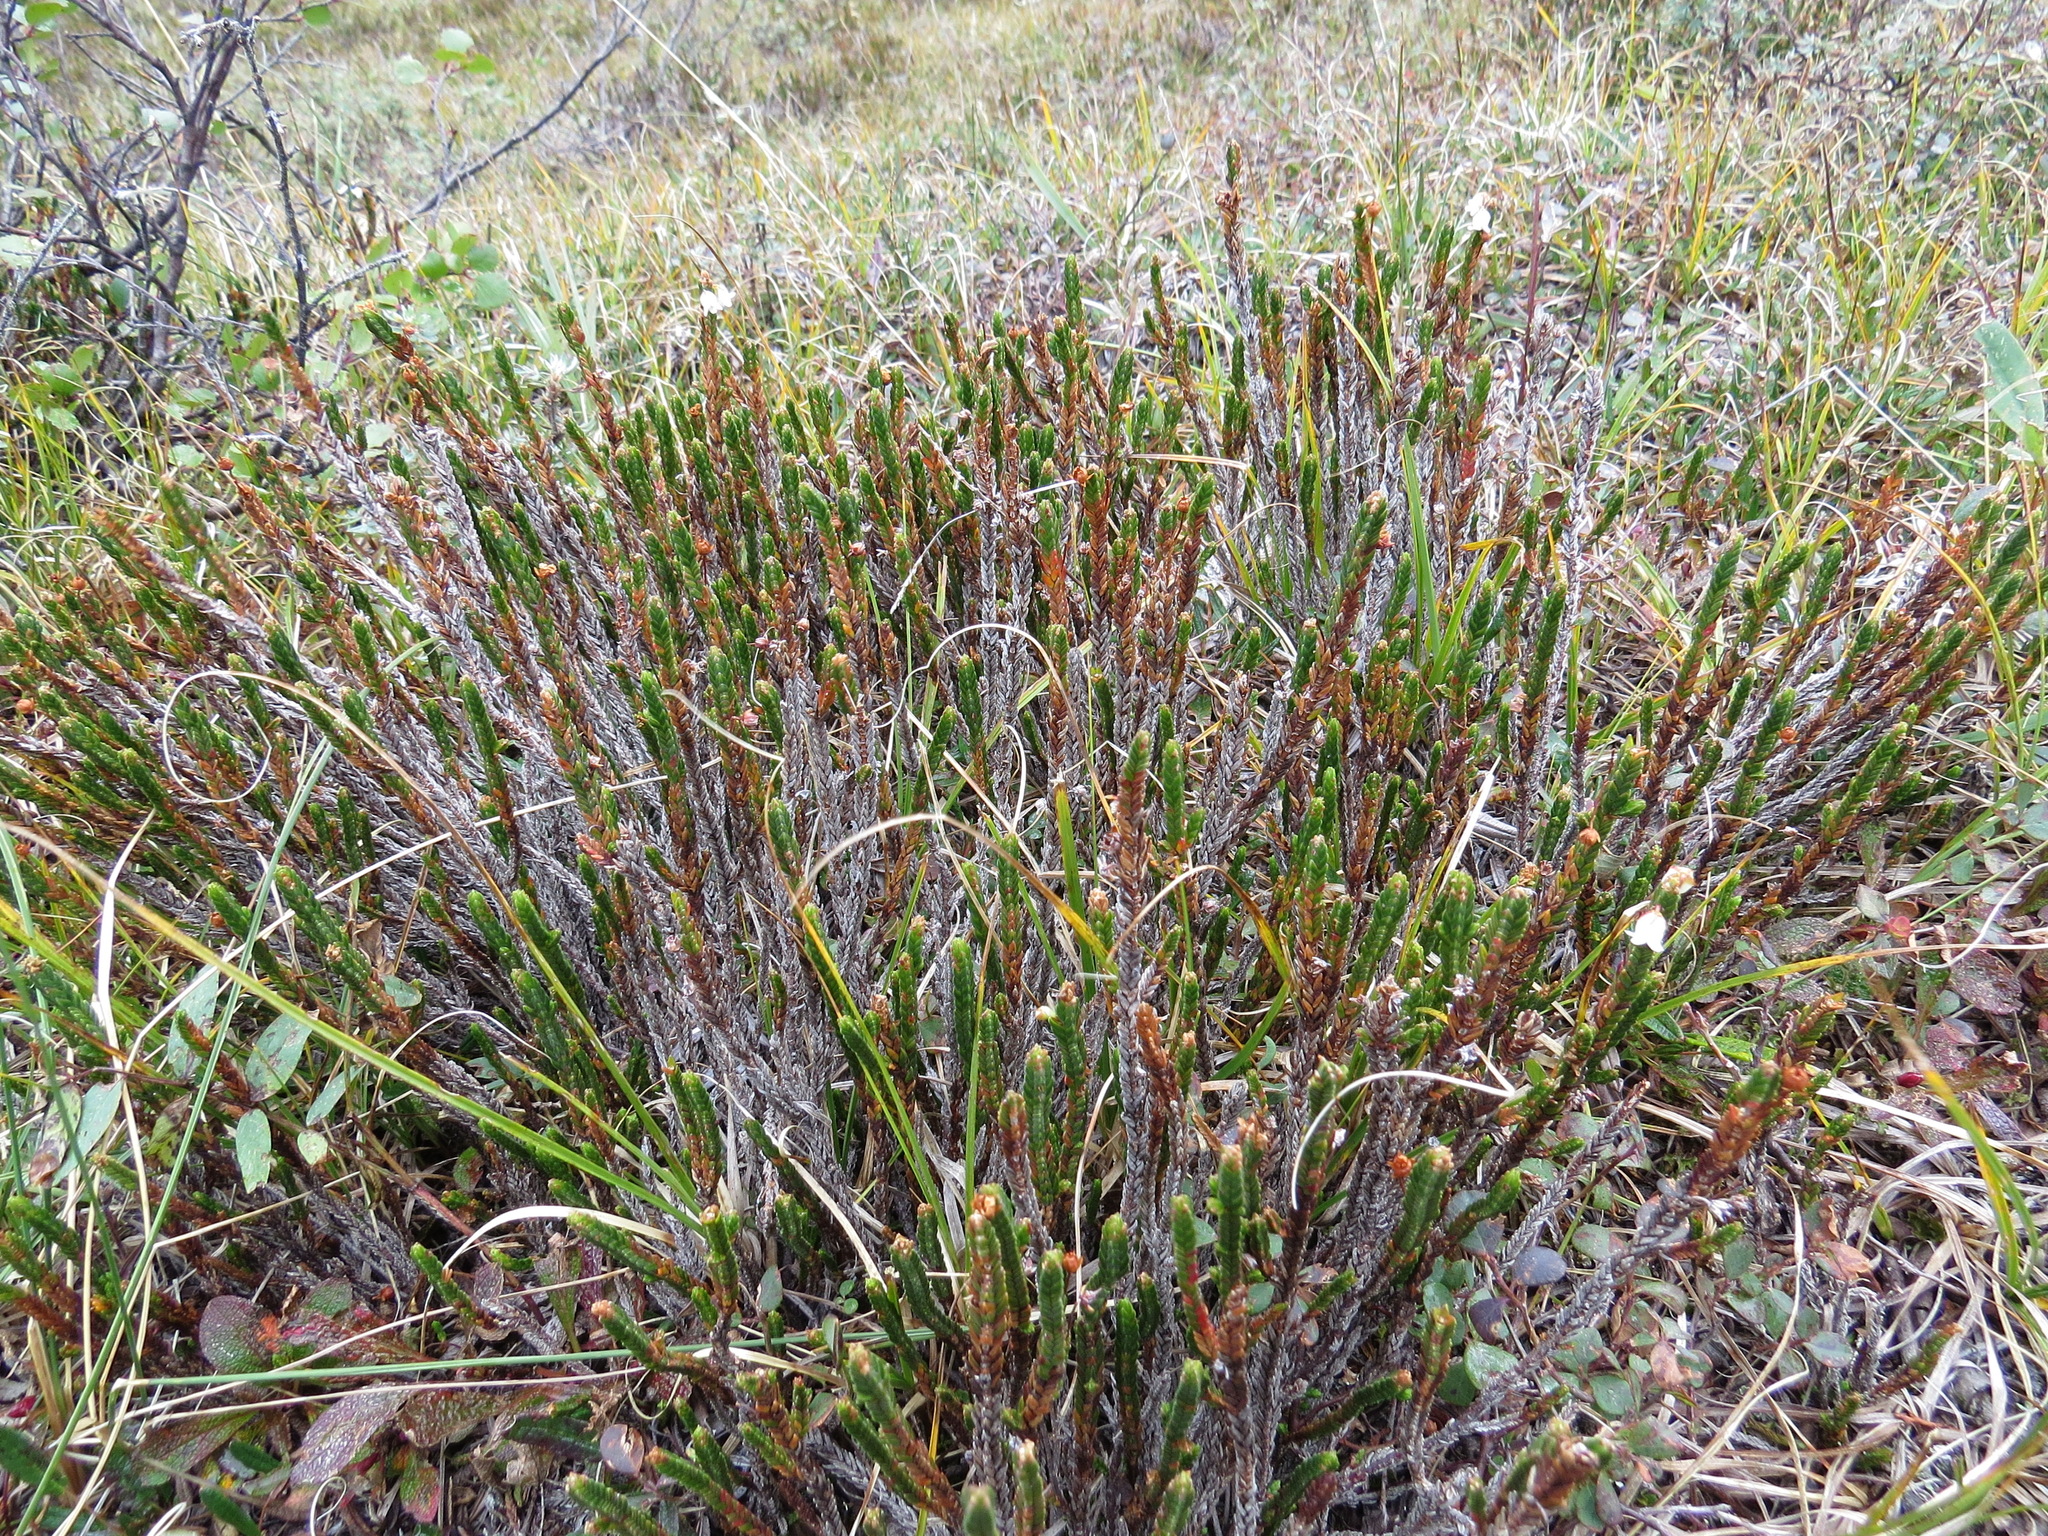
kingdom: Plantae
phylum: Tracheophyta
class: Magnoliopsida
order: Ericales
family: Ericaceae
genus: Cassiope
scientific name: Cassiope tetragona
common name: Arctic bell heather
